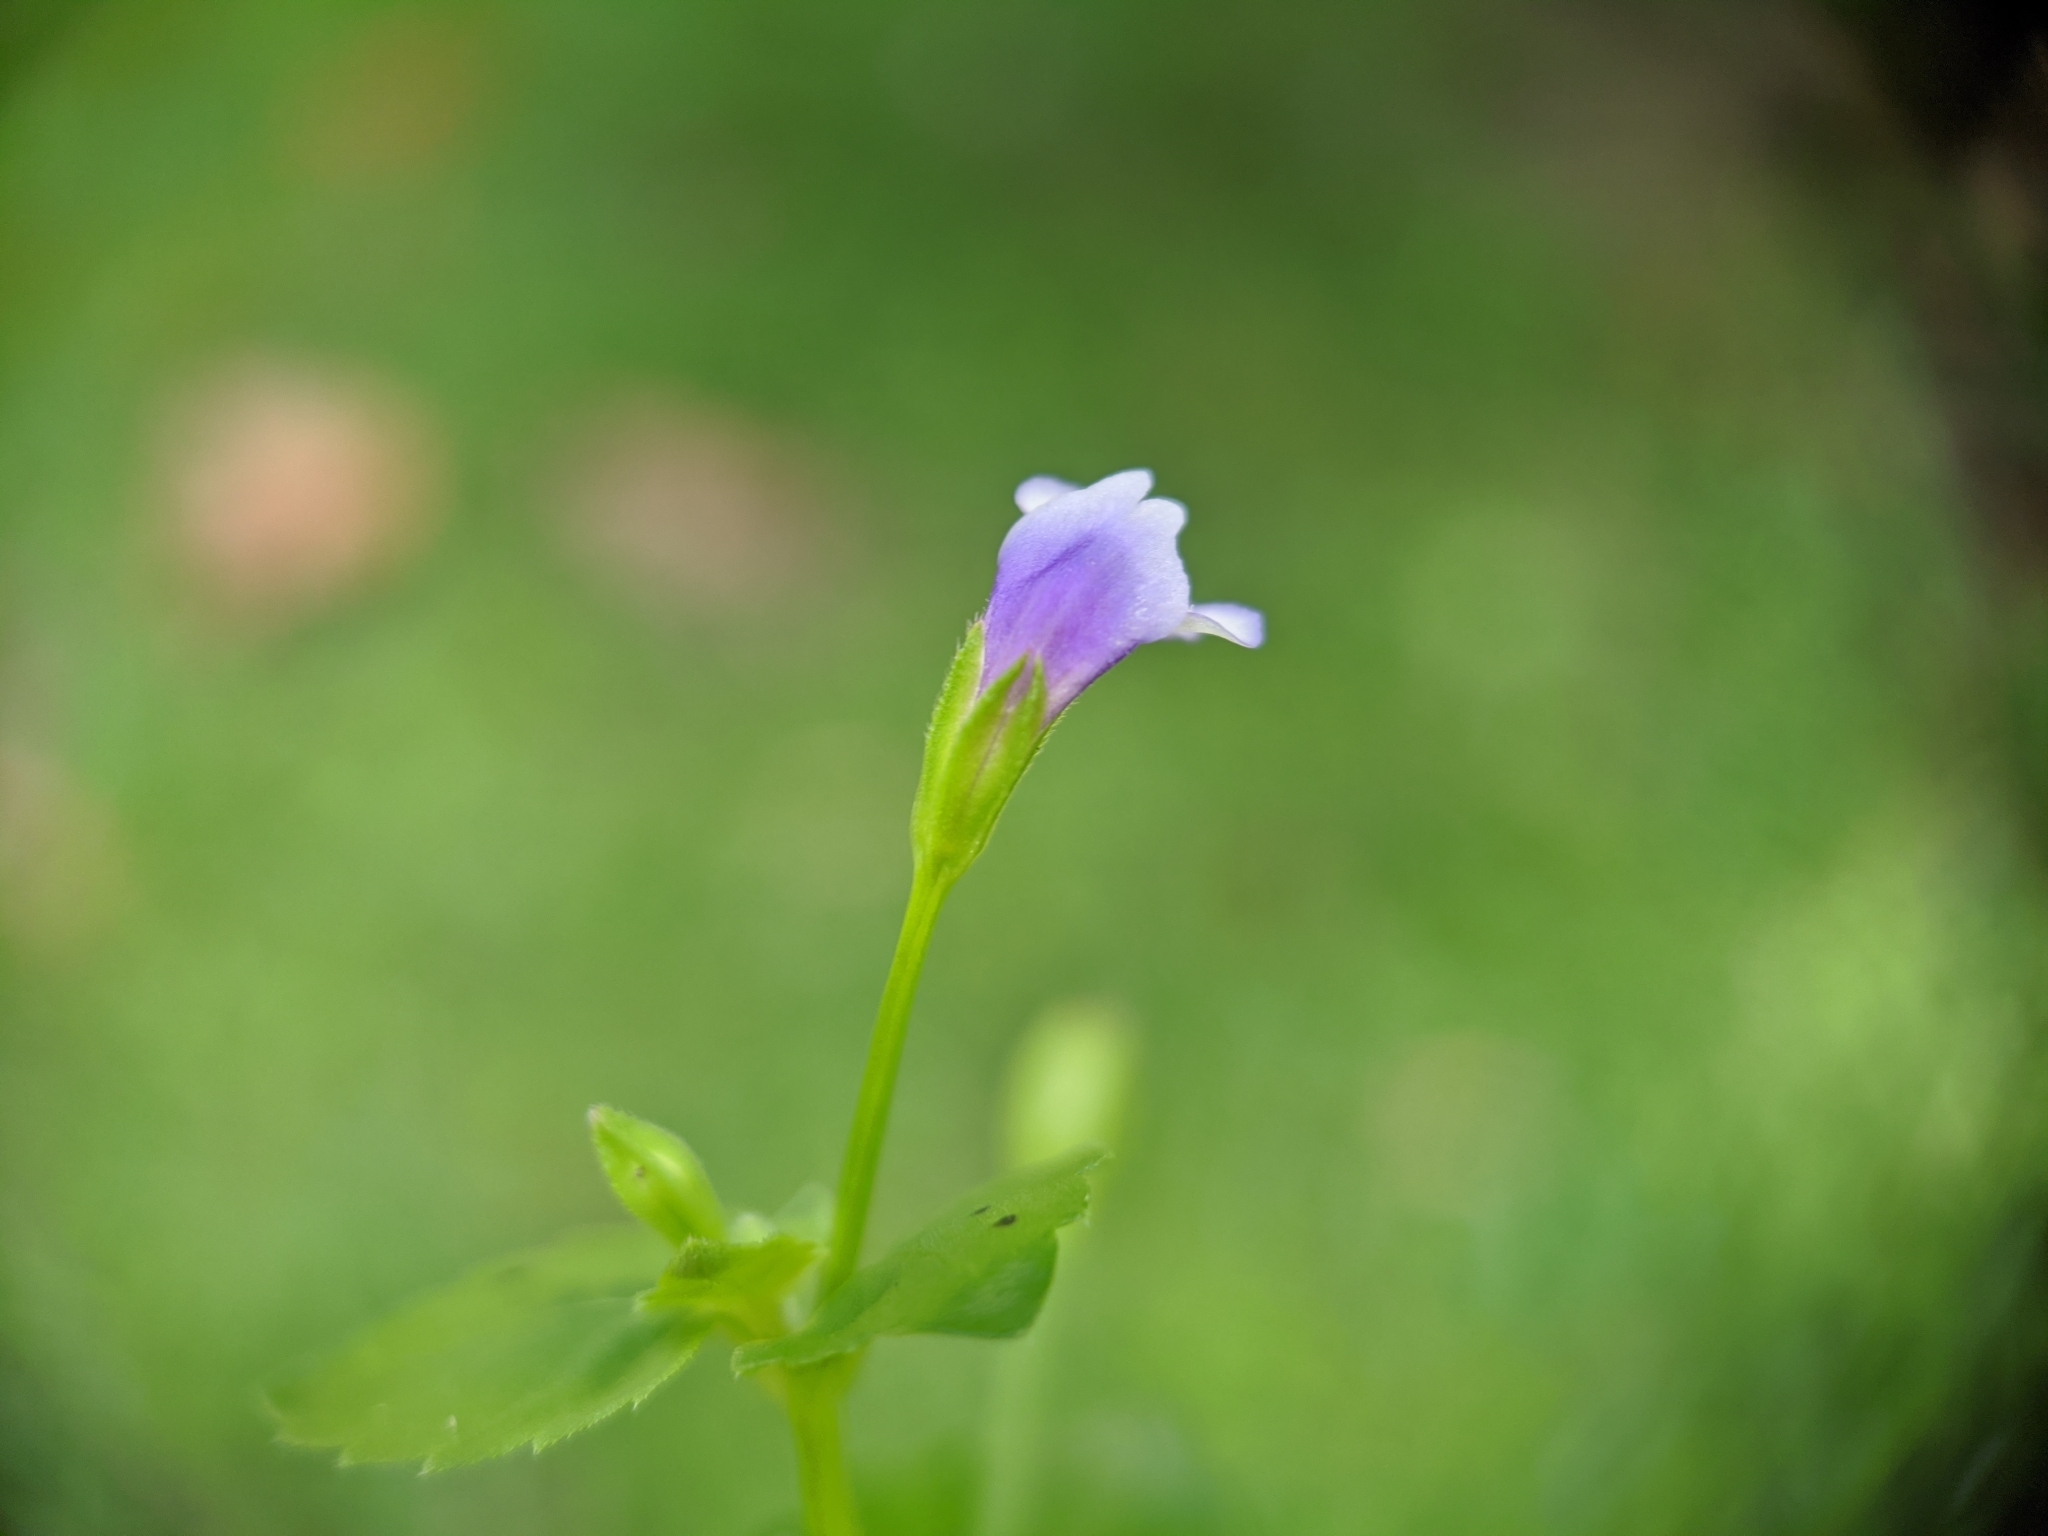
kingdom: Plantae
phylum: Tracheophyta
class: Magnoliopsida
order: Lamiales
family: Linderniaceae
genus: Torenia
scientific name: Torenia crustacea
